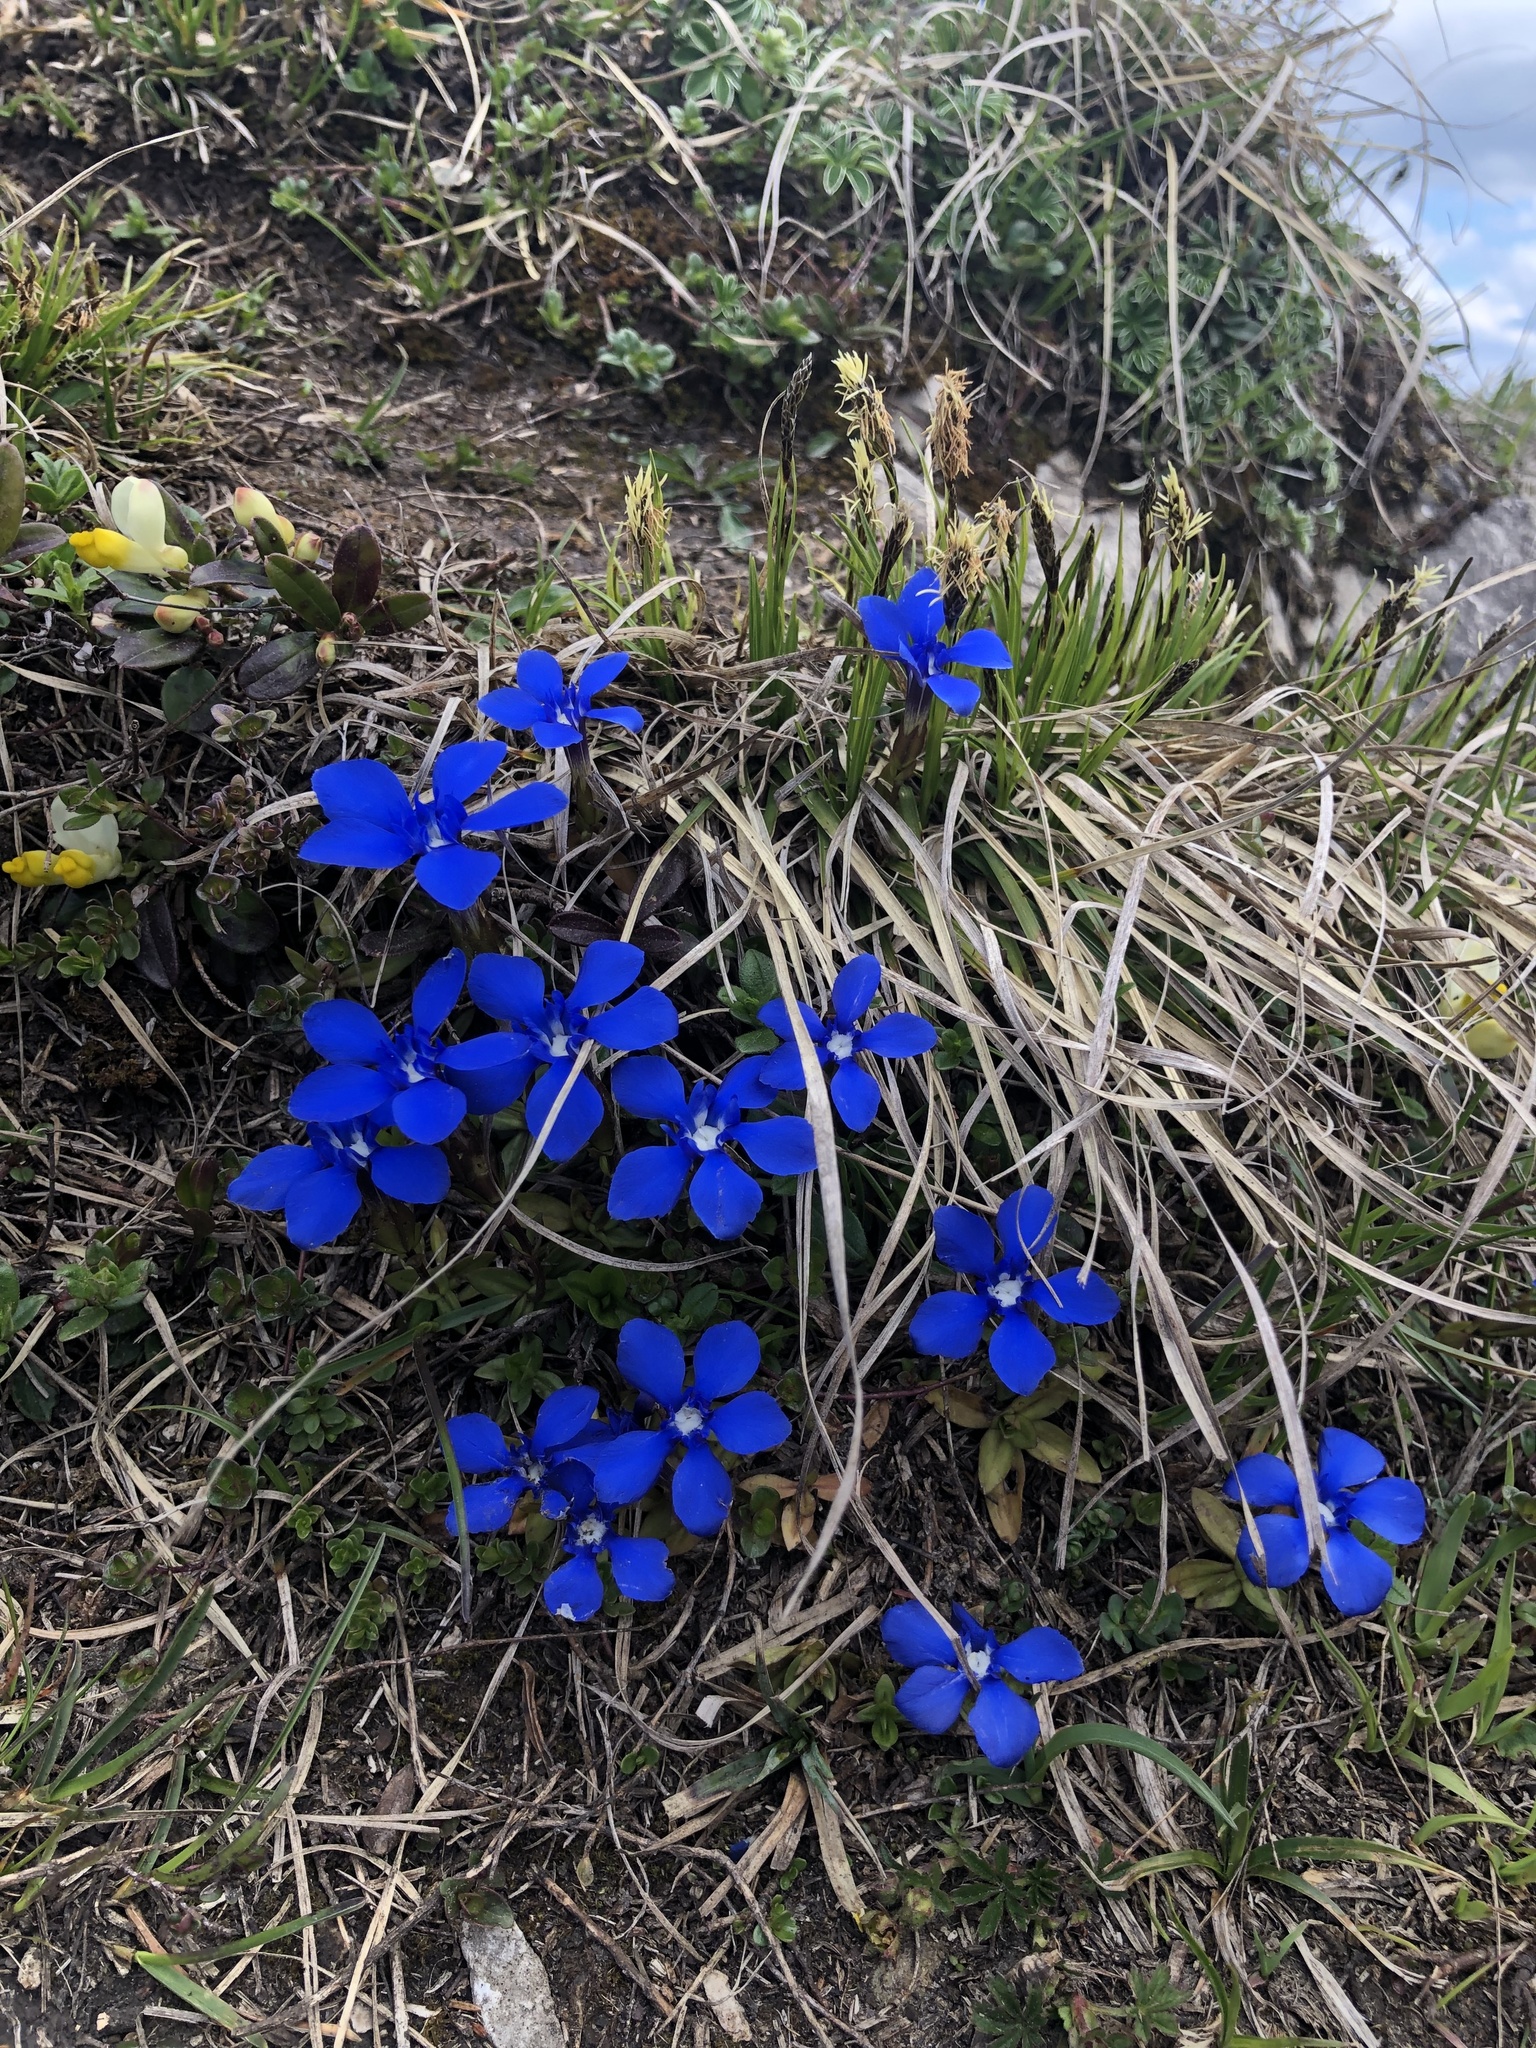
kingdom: Plantae
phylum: Tracheophyta
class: Magnoliopsida
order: Gentianales
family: Gentianaceae
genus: Gentiana
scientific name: Gentiana verna
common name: Spring gentian
